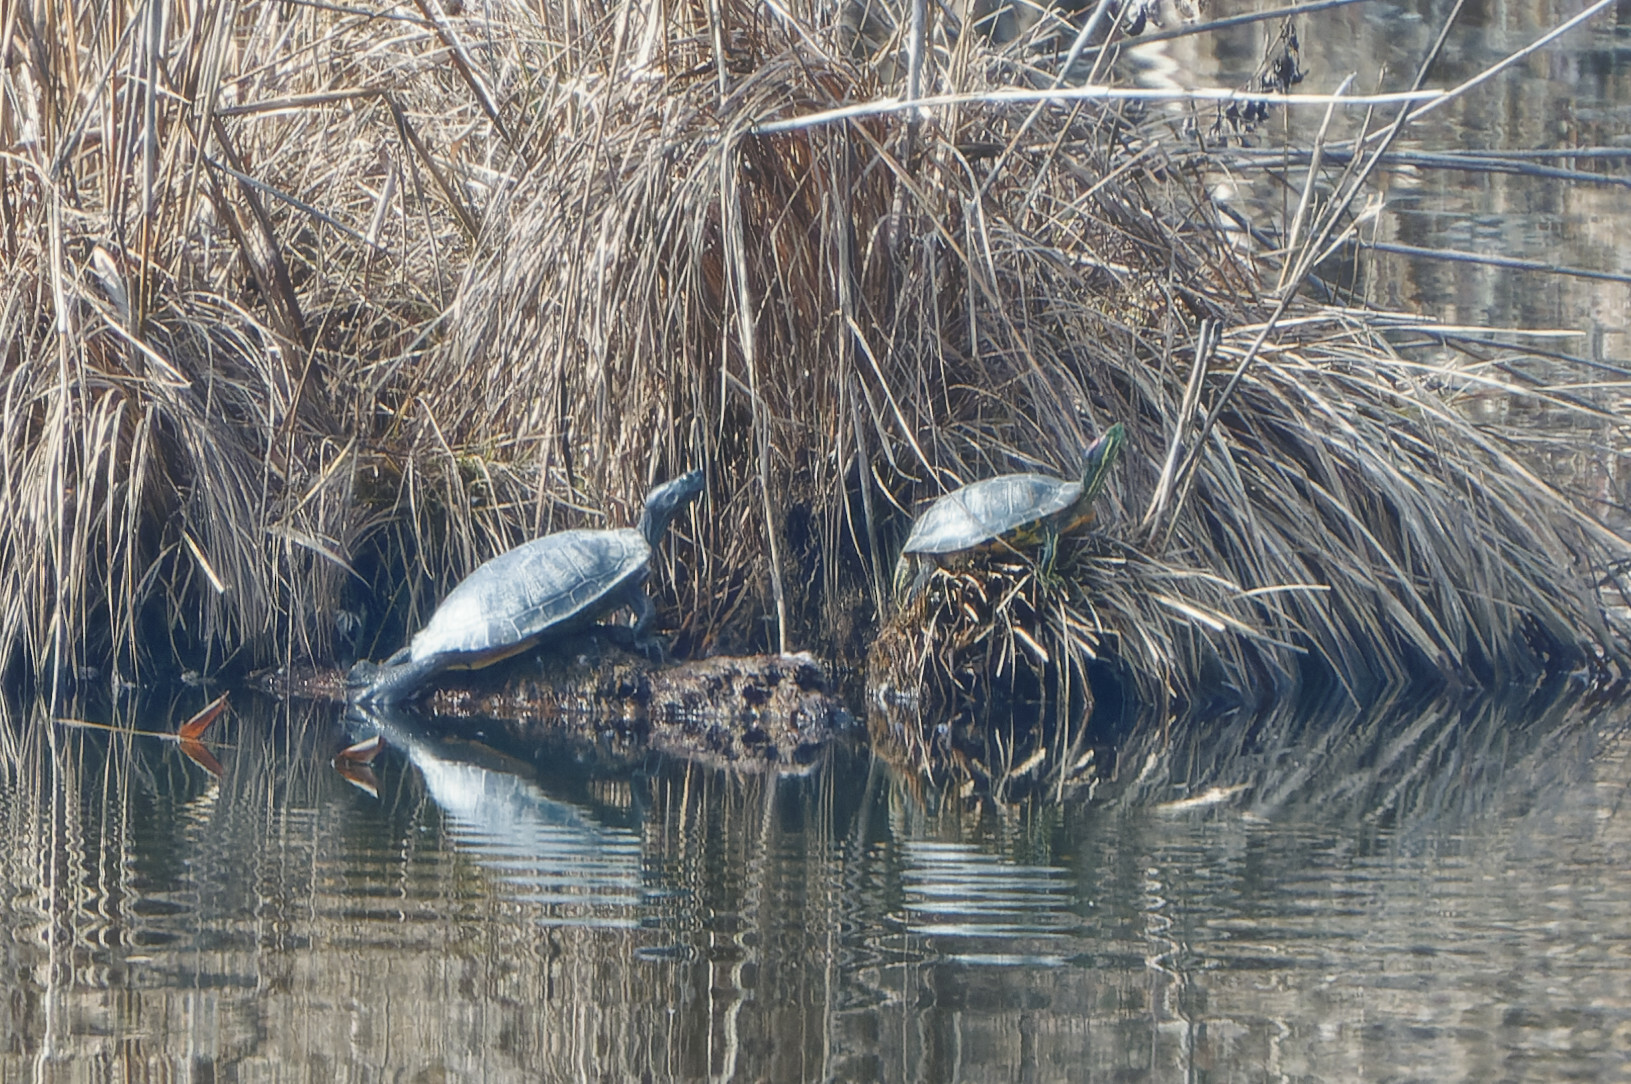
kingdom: Animalia
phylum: Chordata
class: Testudines
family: Emydidae
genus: Trachemys
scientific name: Trachemys scripta
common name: Slider
